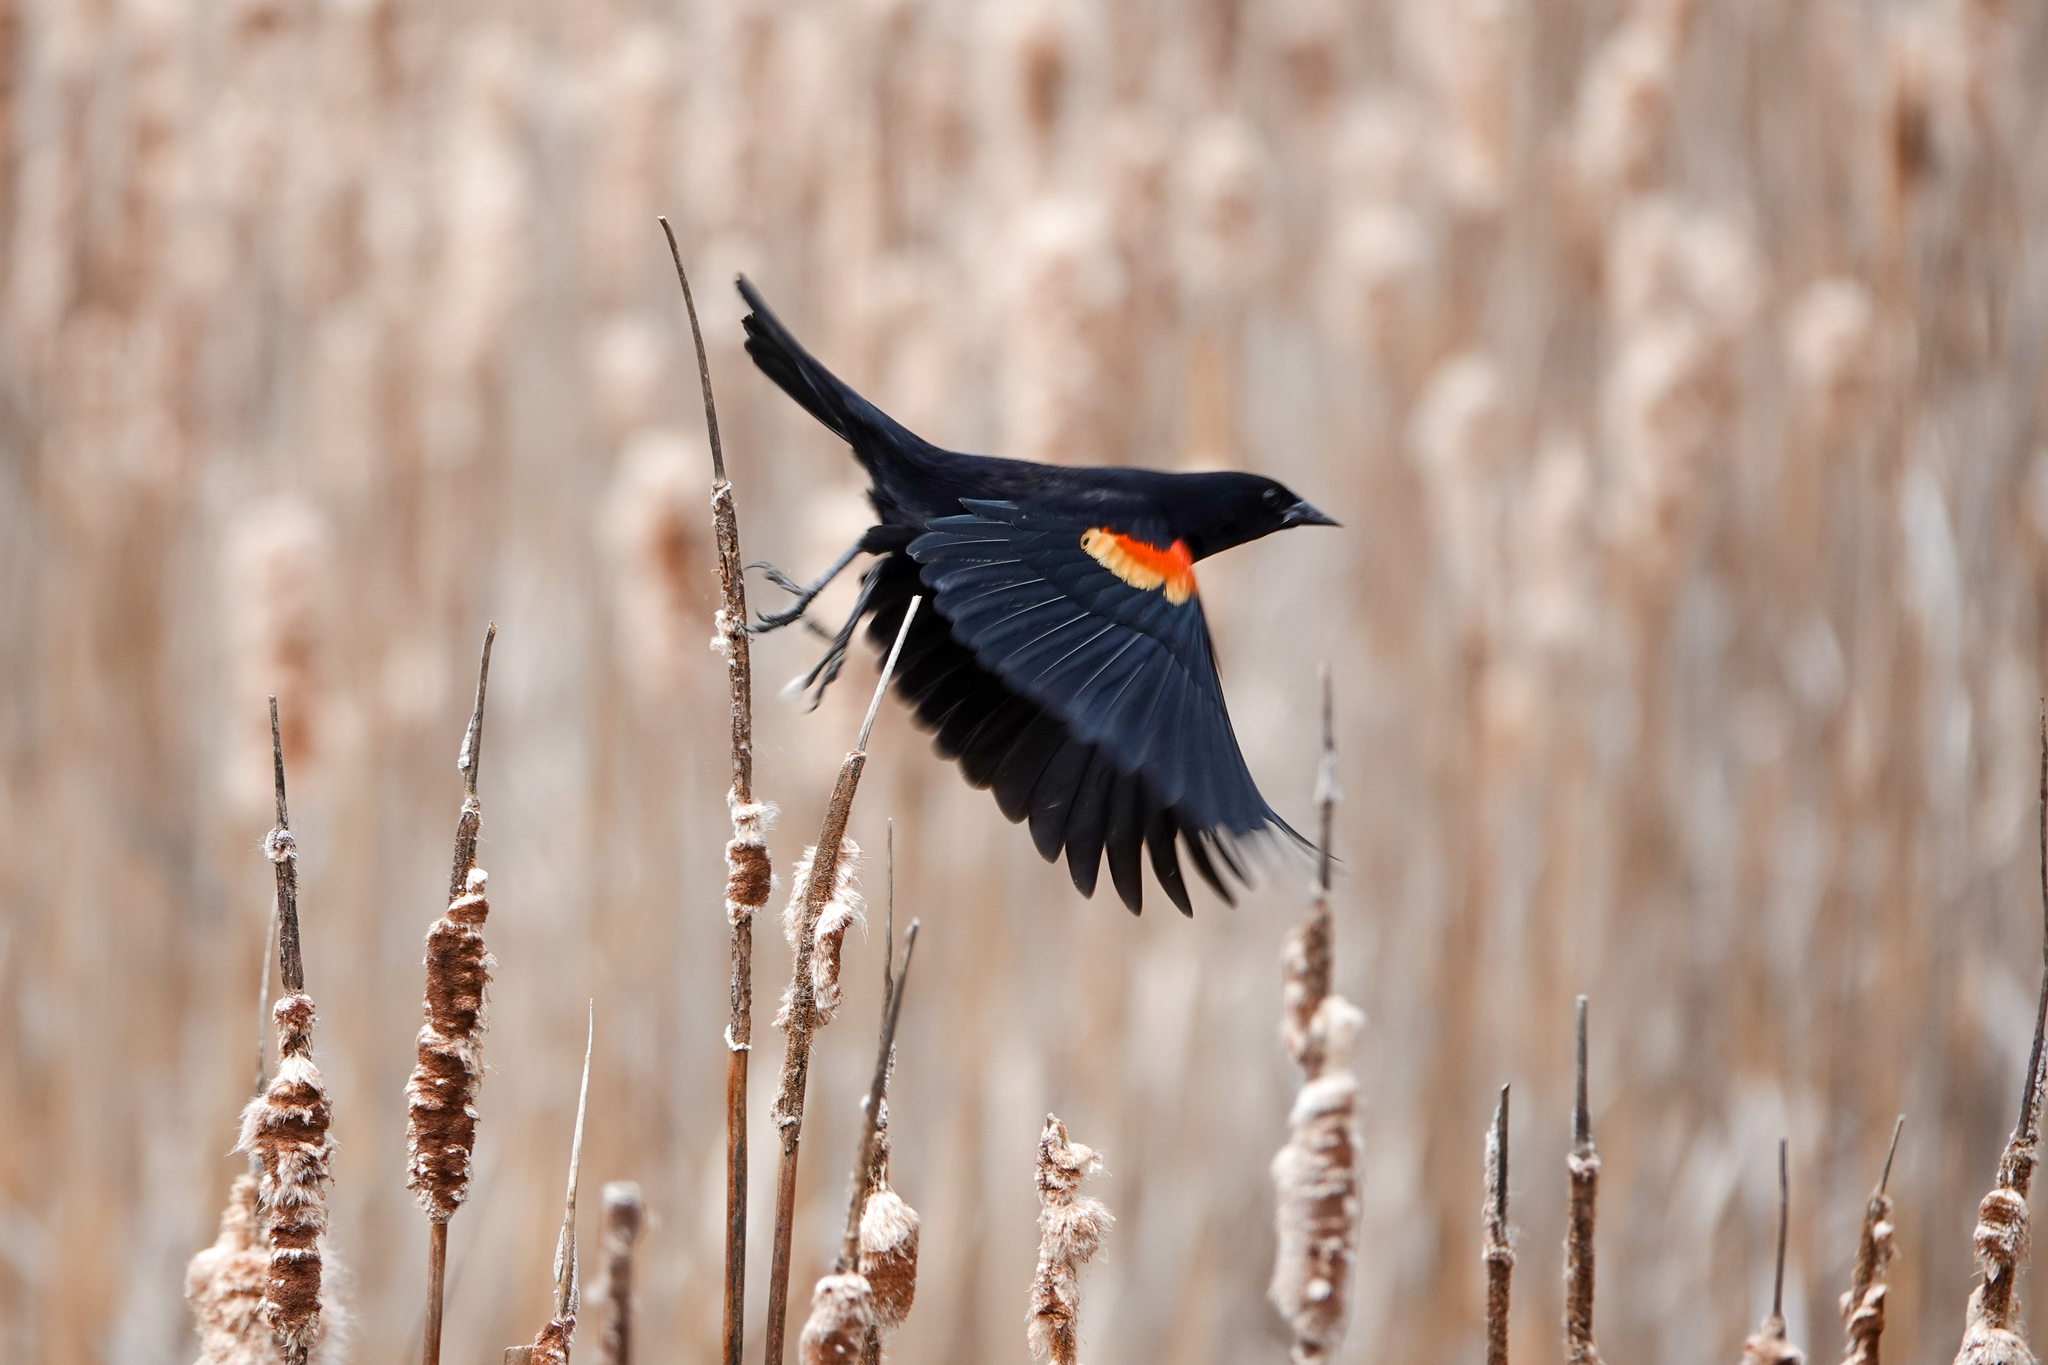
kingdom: Animalia
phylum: Chordata
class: Aves
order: Passeriformes
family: Icteridae
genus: Agelaius
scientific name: Agelaius phoeniceus
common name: Red-winged blackbird
